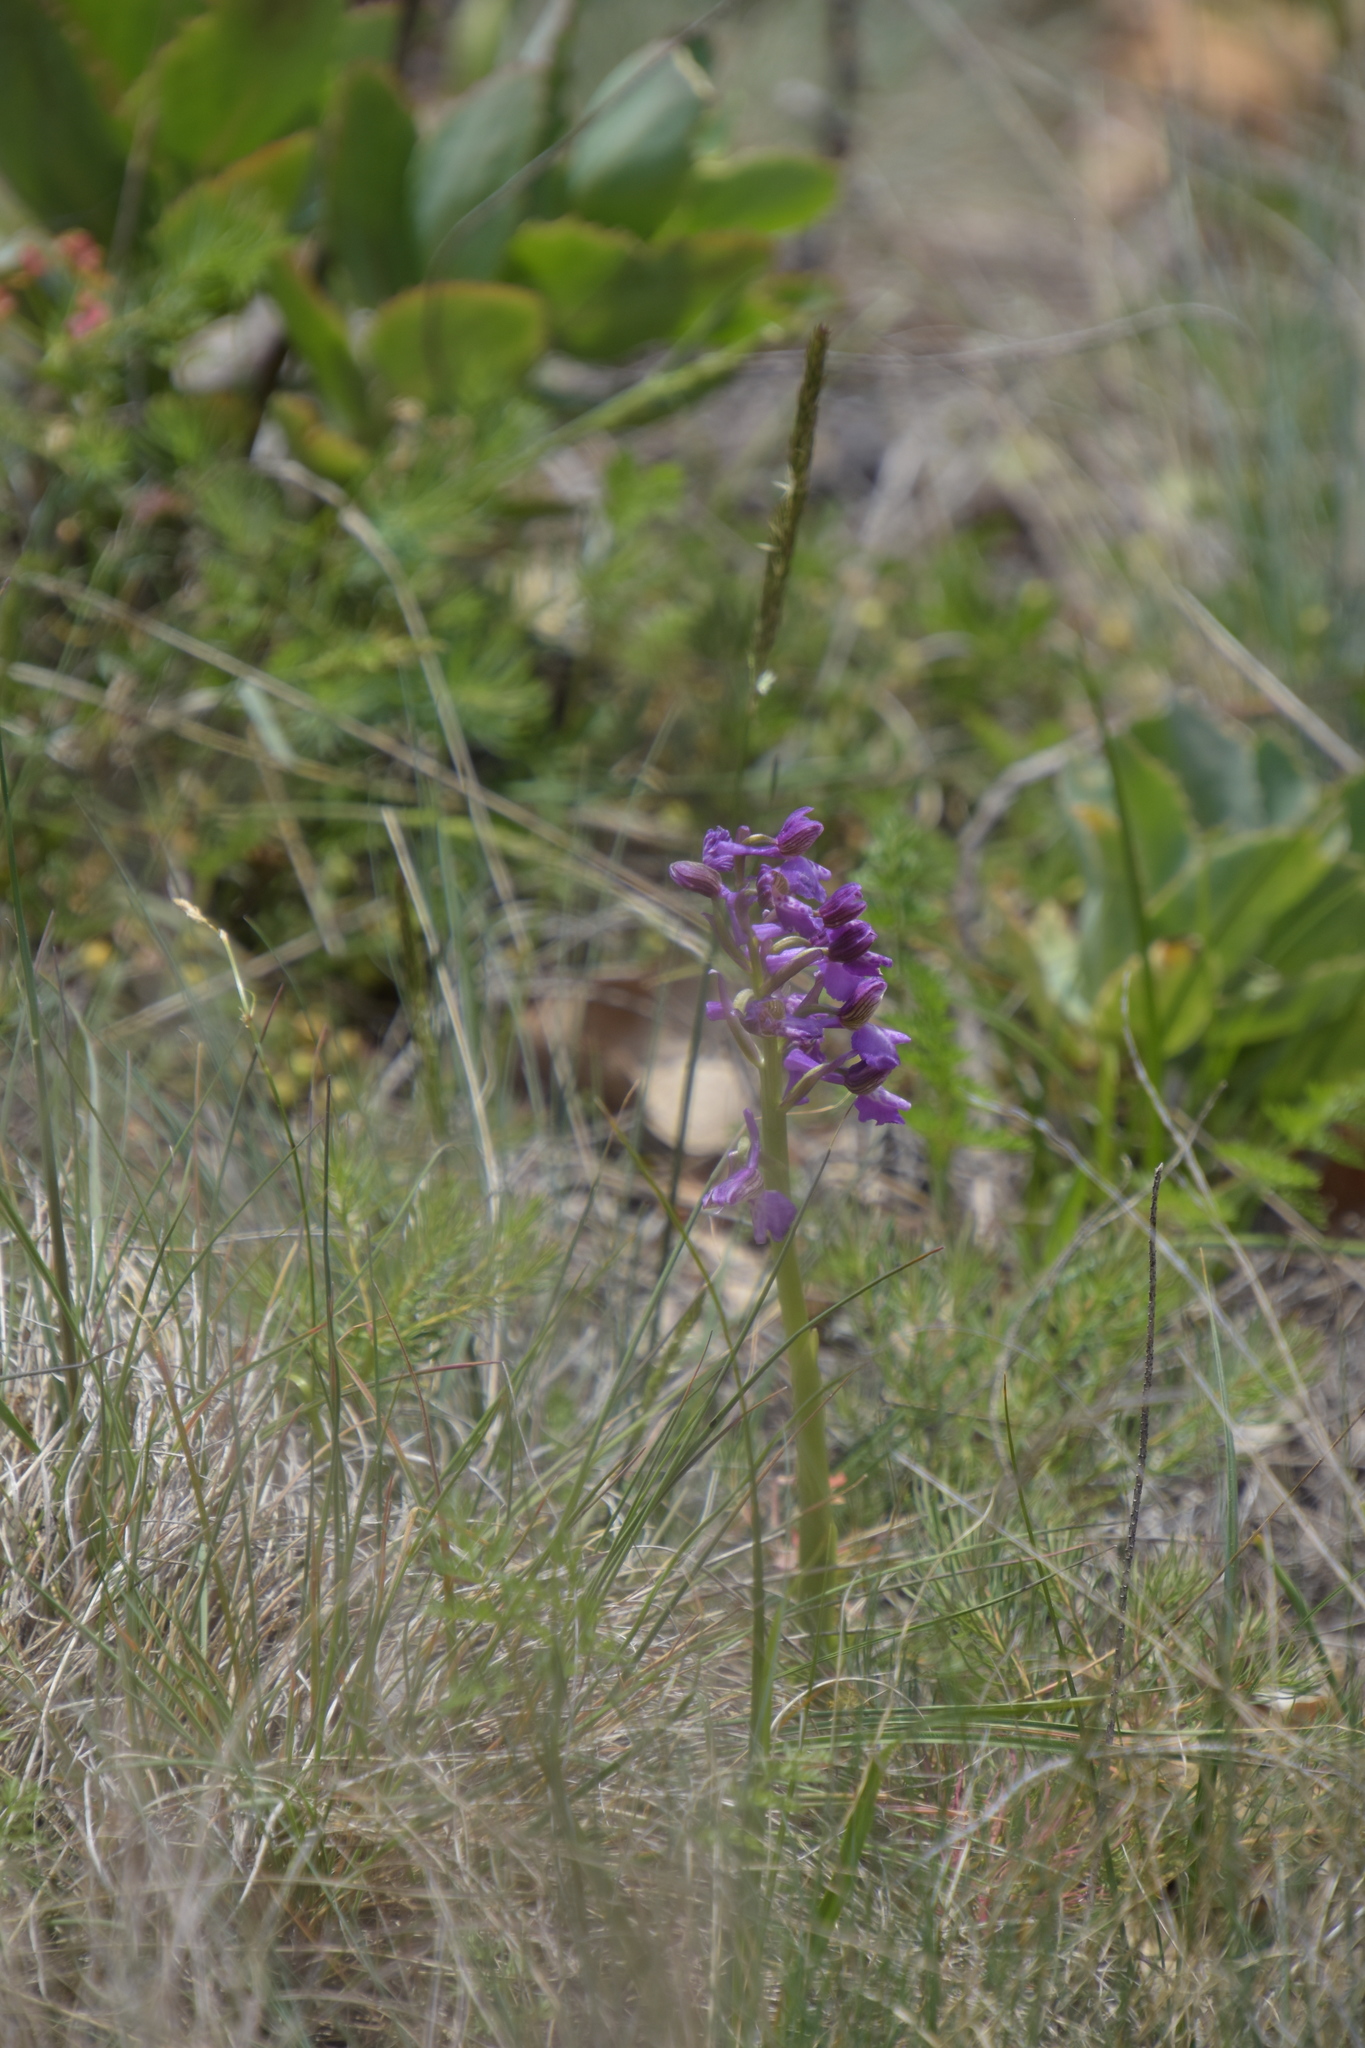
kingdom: Plantae
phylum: Tracheophyta
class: Liliopsida
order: Asparagales
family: Orchidaceae
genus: Anacamptis
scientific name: Anacamptis morio
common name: Green-winged orchid
